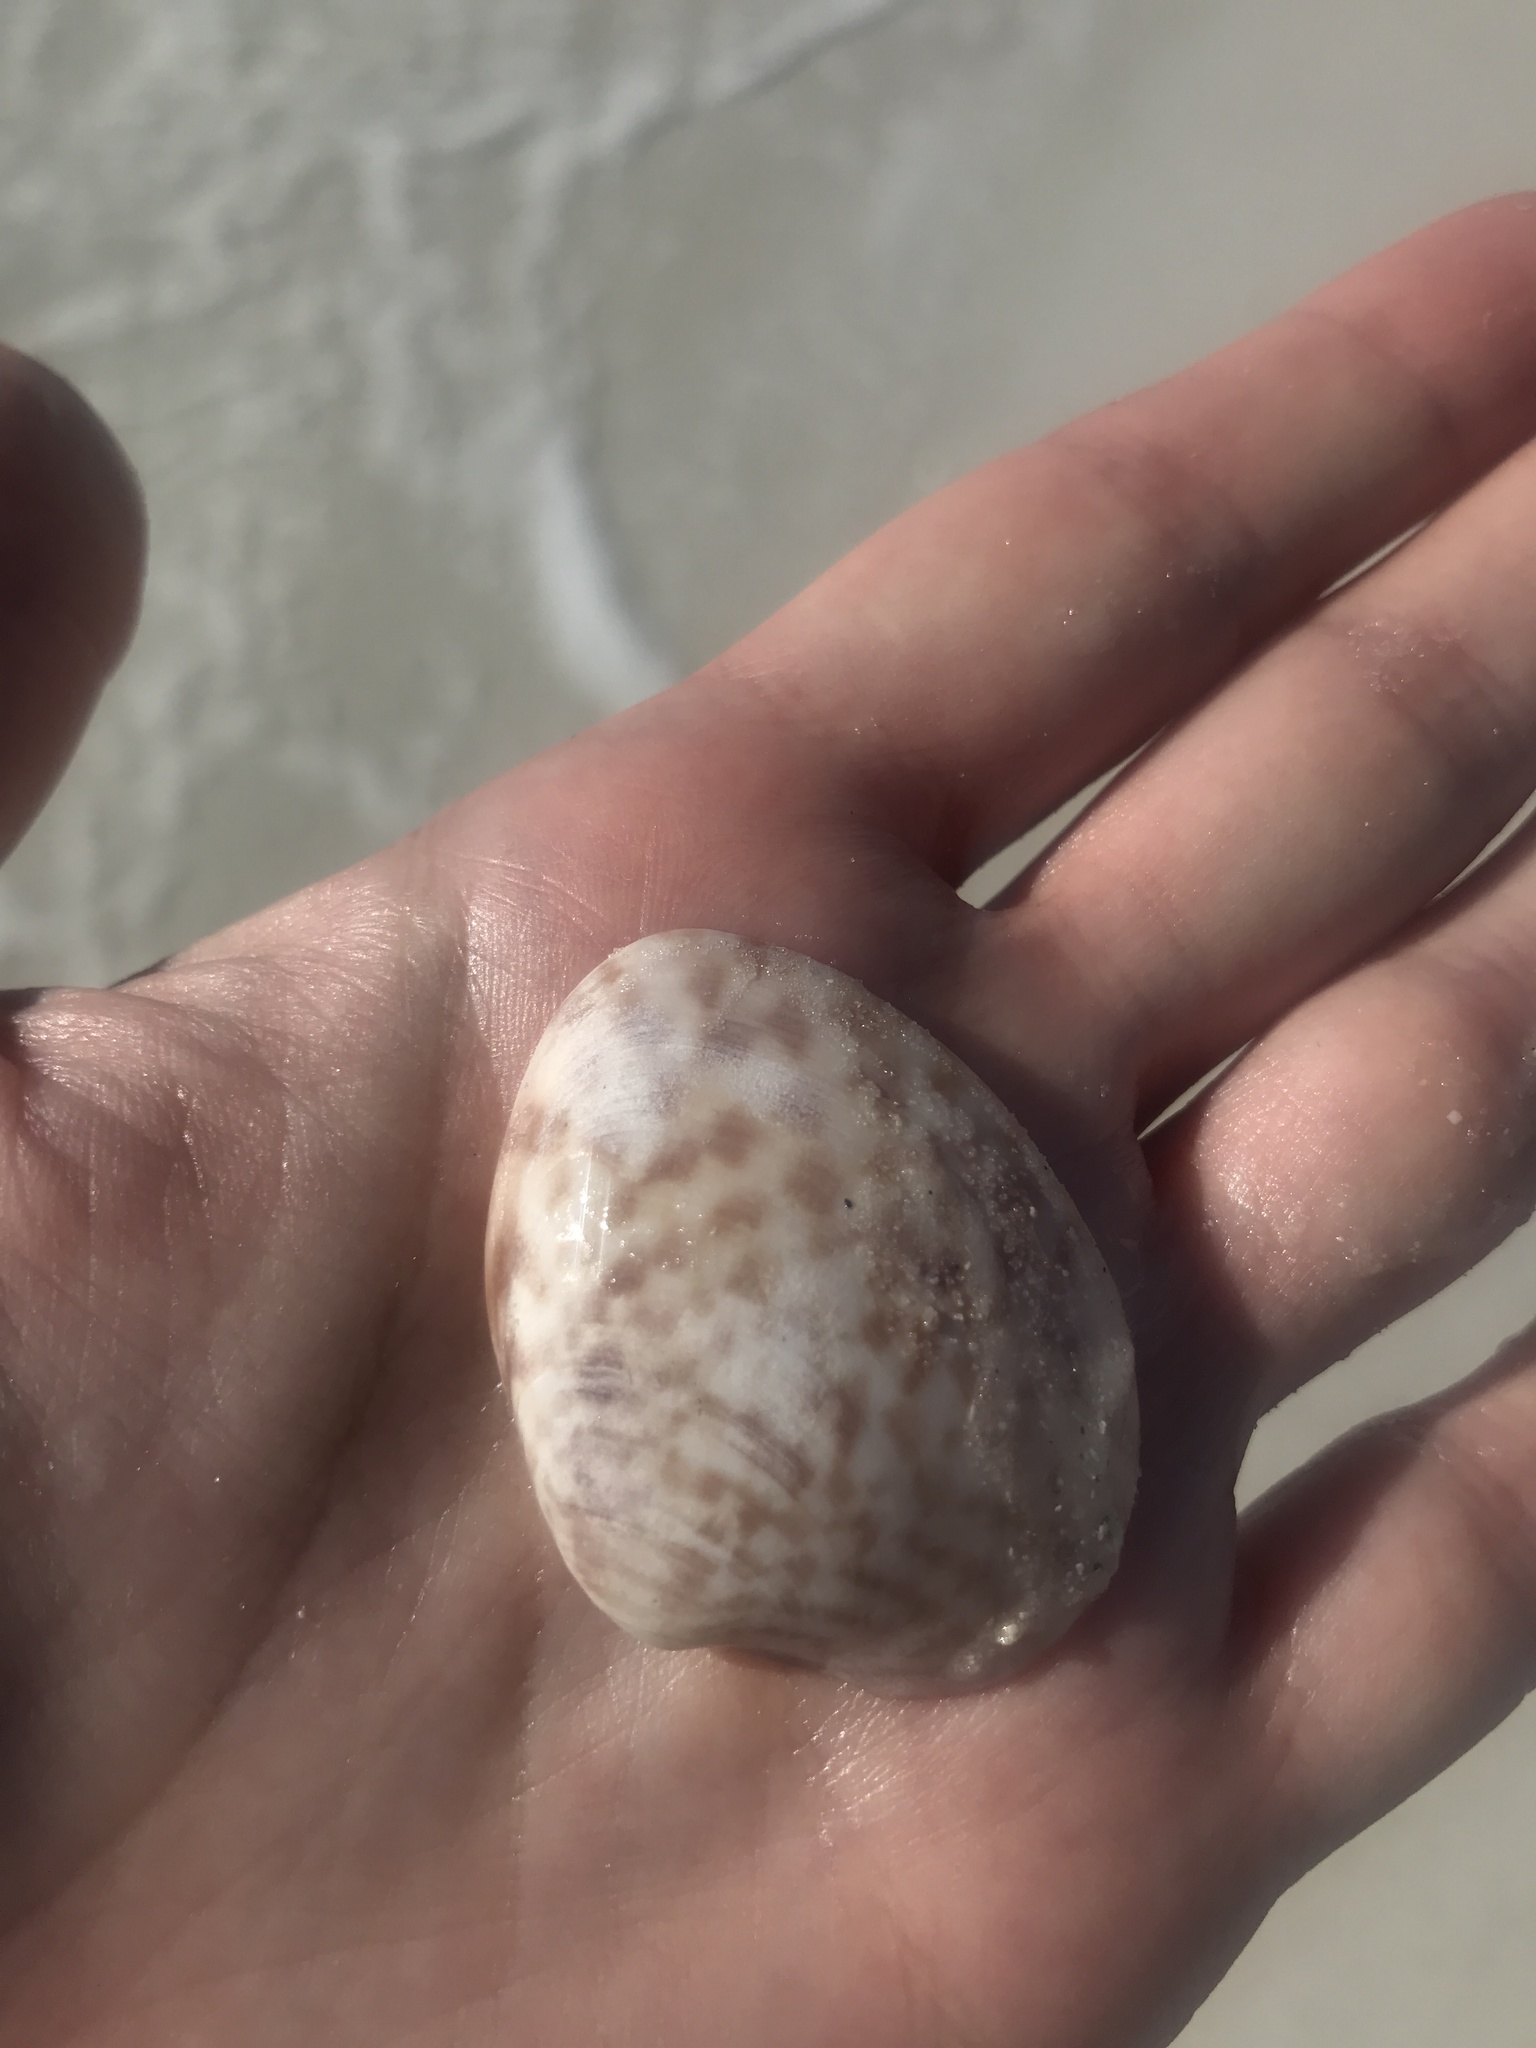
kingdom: Animalia
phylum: Mollusca
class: Bivalvia
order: Venerida
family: Veneridae
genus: Megapitaria
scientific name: Megapitaria maculata
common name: Calico clam
